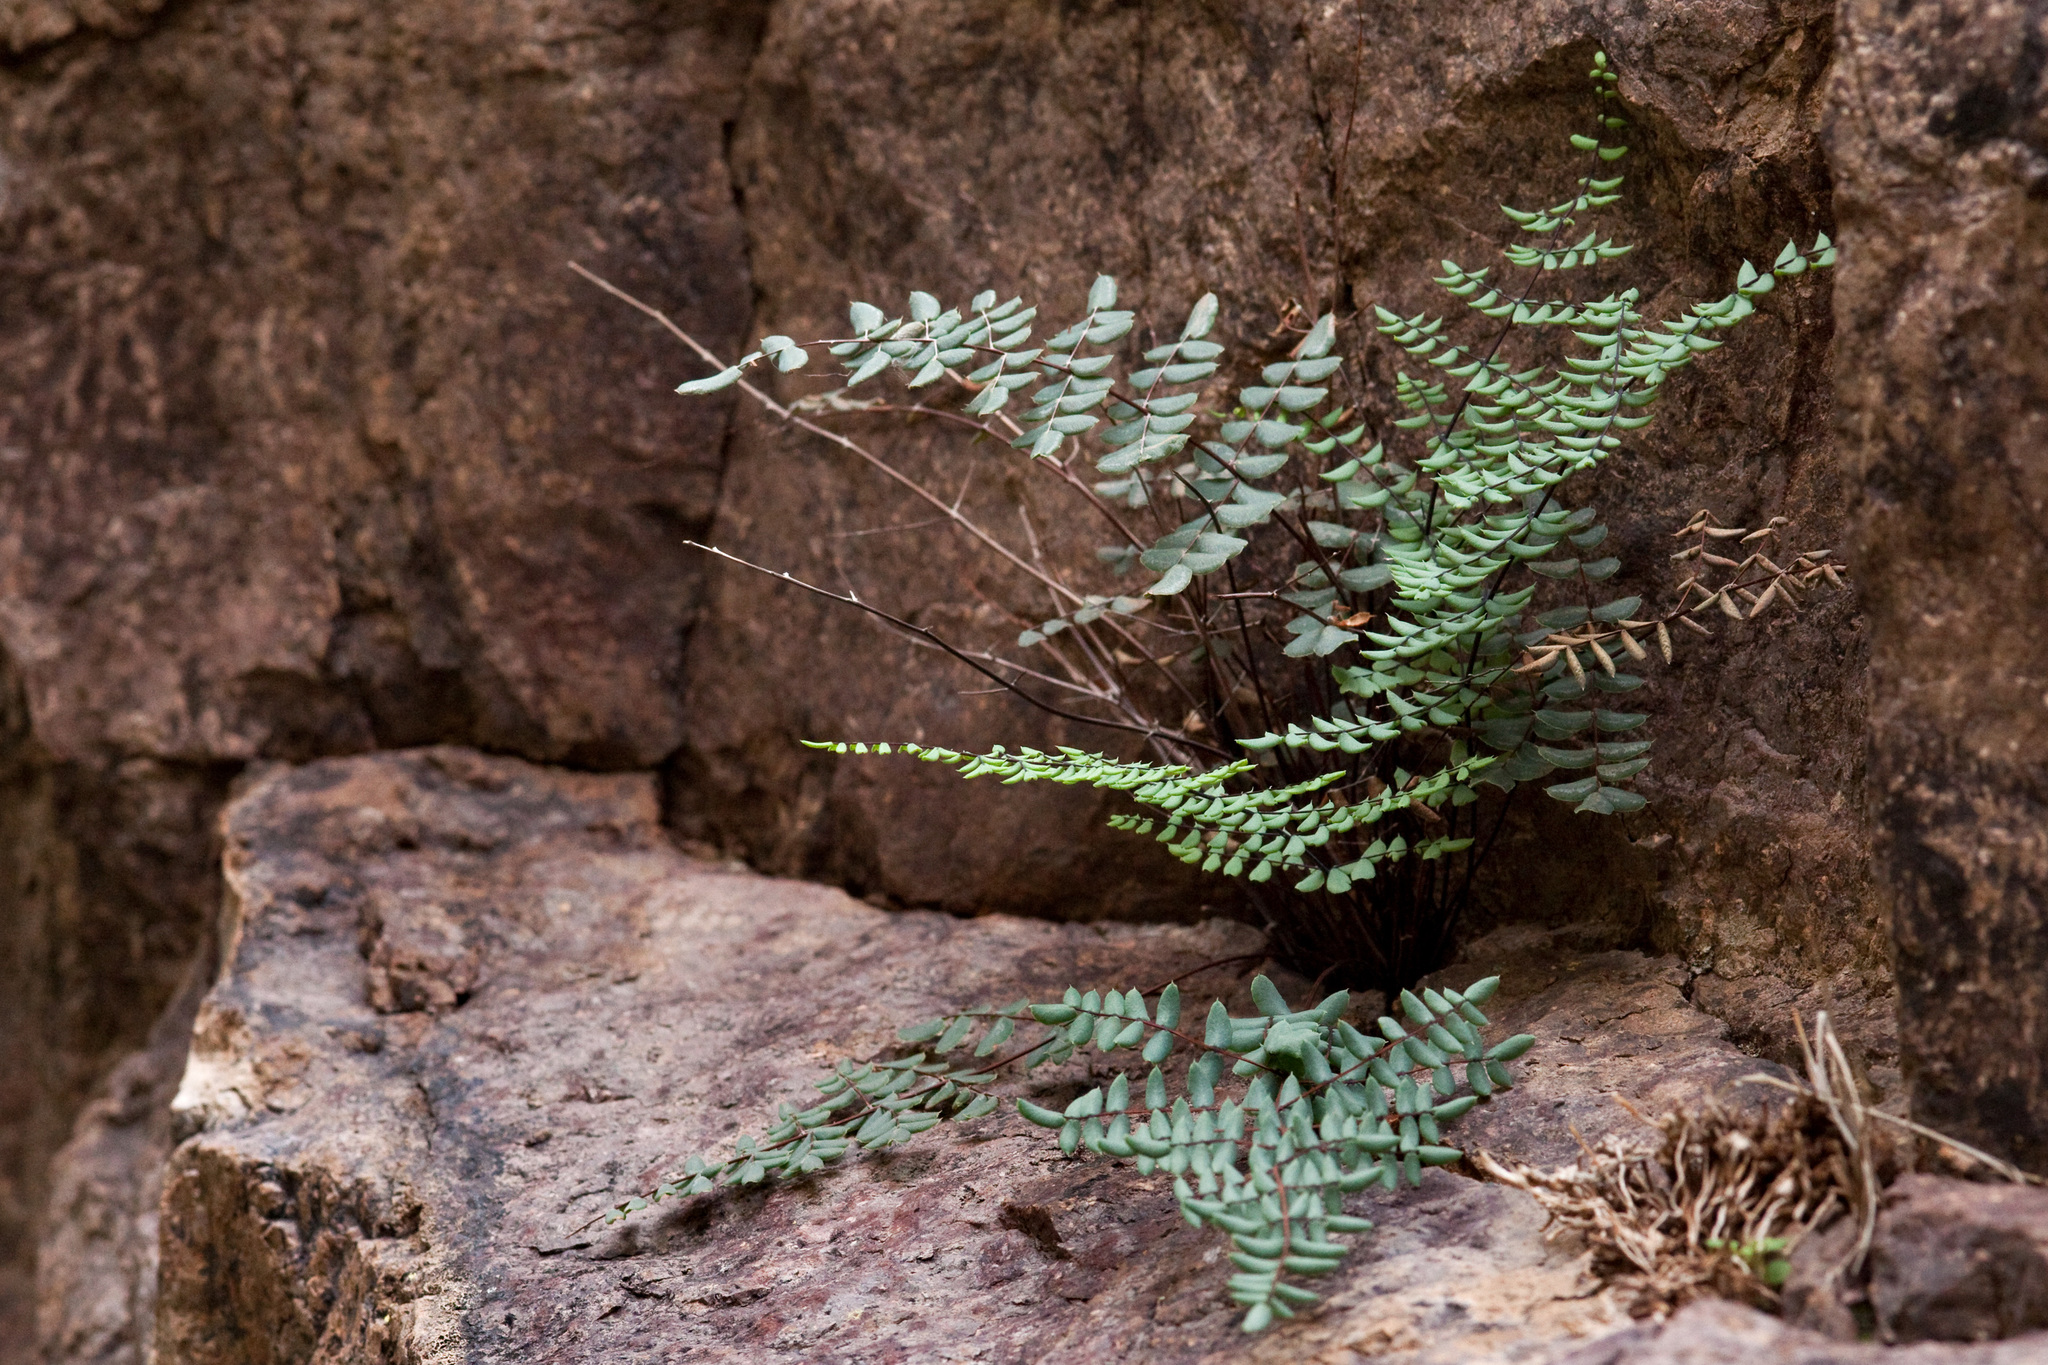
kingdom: Plantae
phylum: Tracheophyta
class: Polypodiopsida
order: Polypodiales
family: Pteridaceae
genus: Pellaea
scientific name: Pellaea truncata
